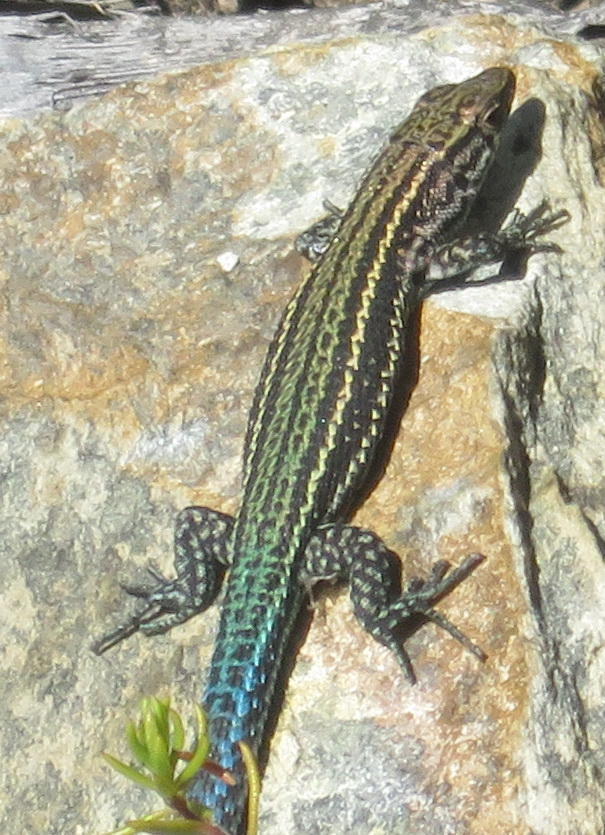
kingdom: Animalia
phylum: Chordata
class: Squamata
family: Lacertidae
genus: Tropidosaura
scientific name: Tropidosaura gularis
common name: Cape mountain lizard
